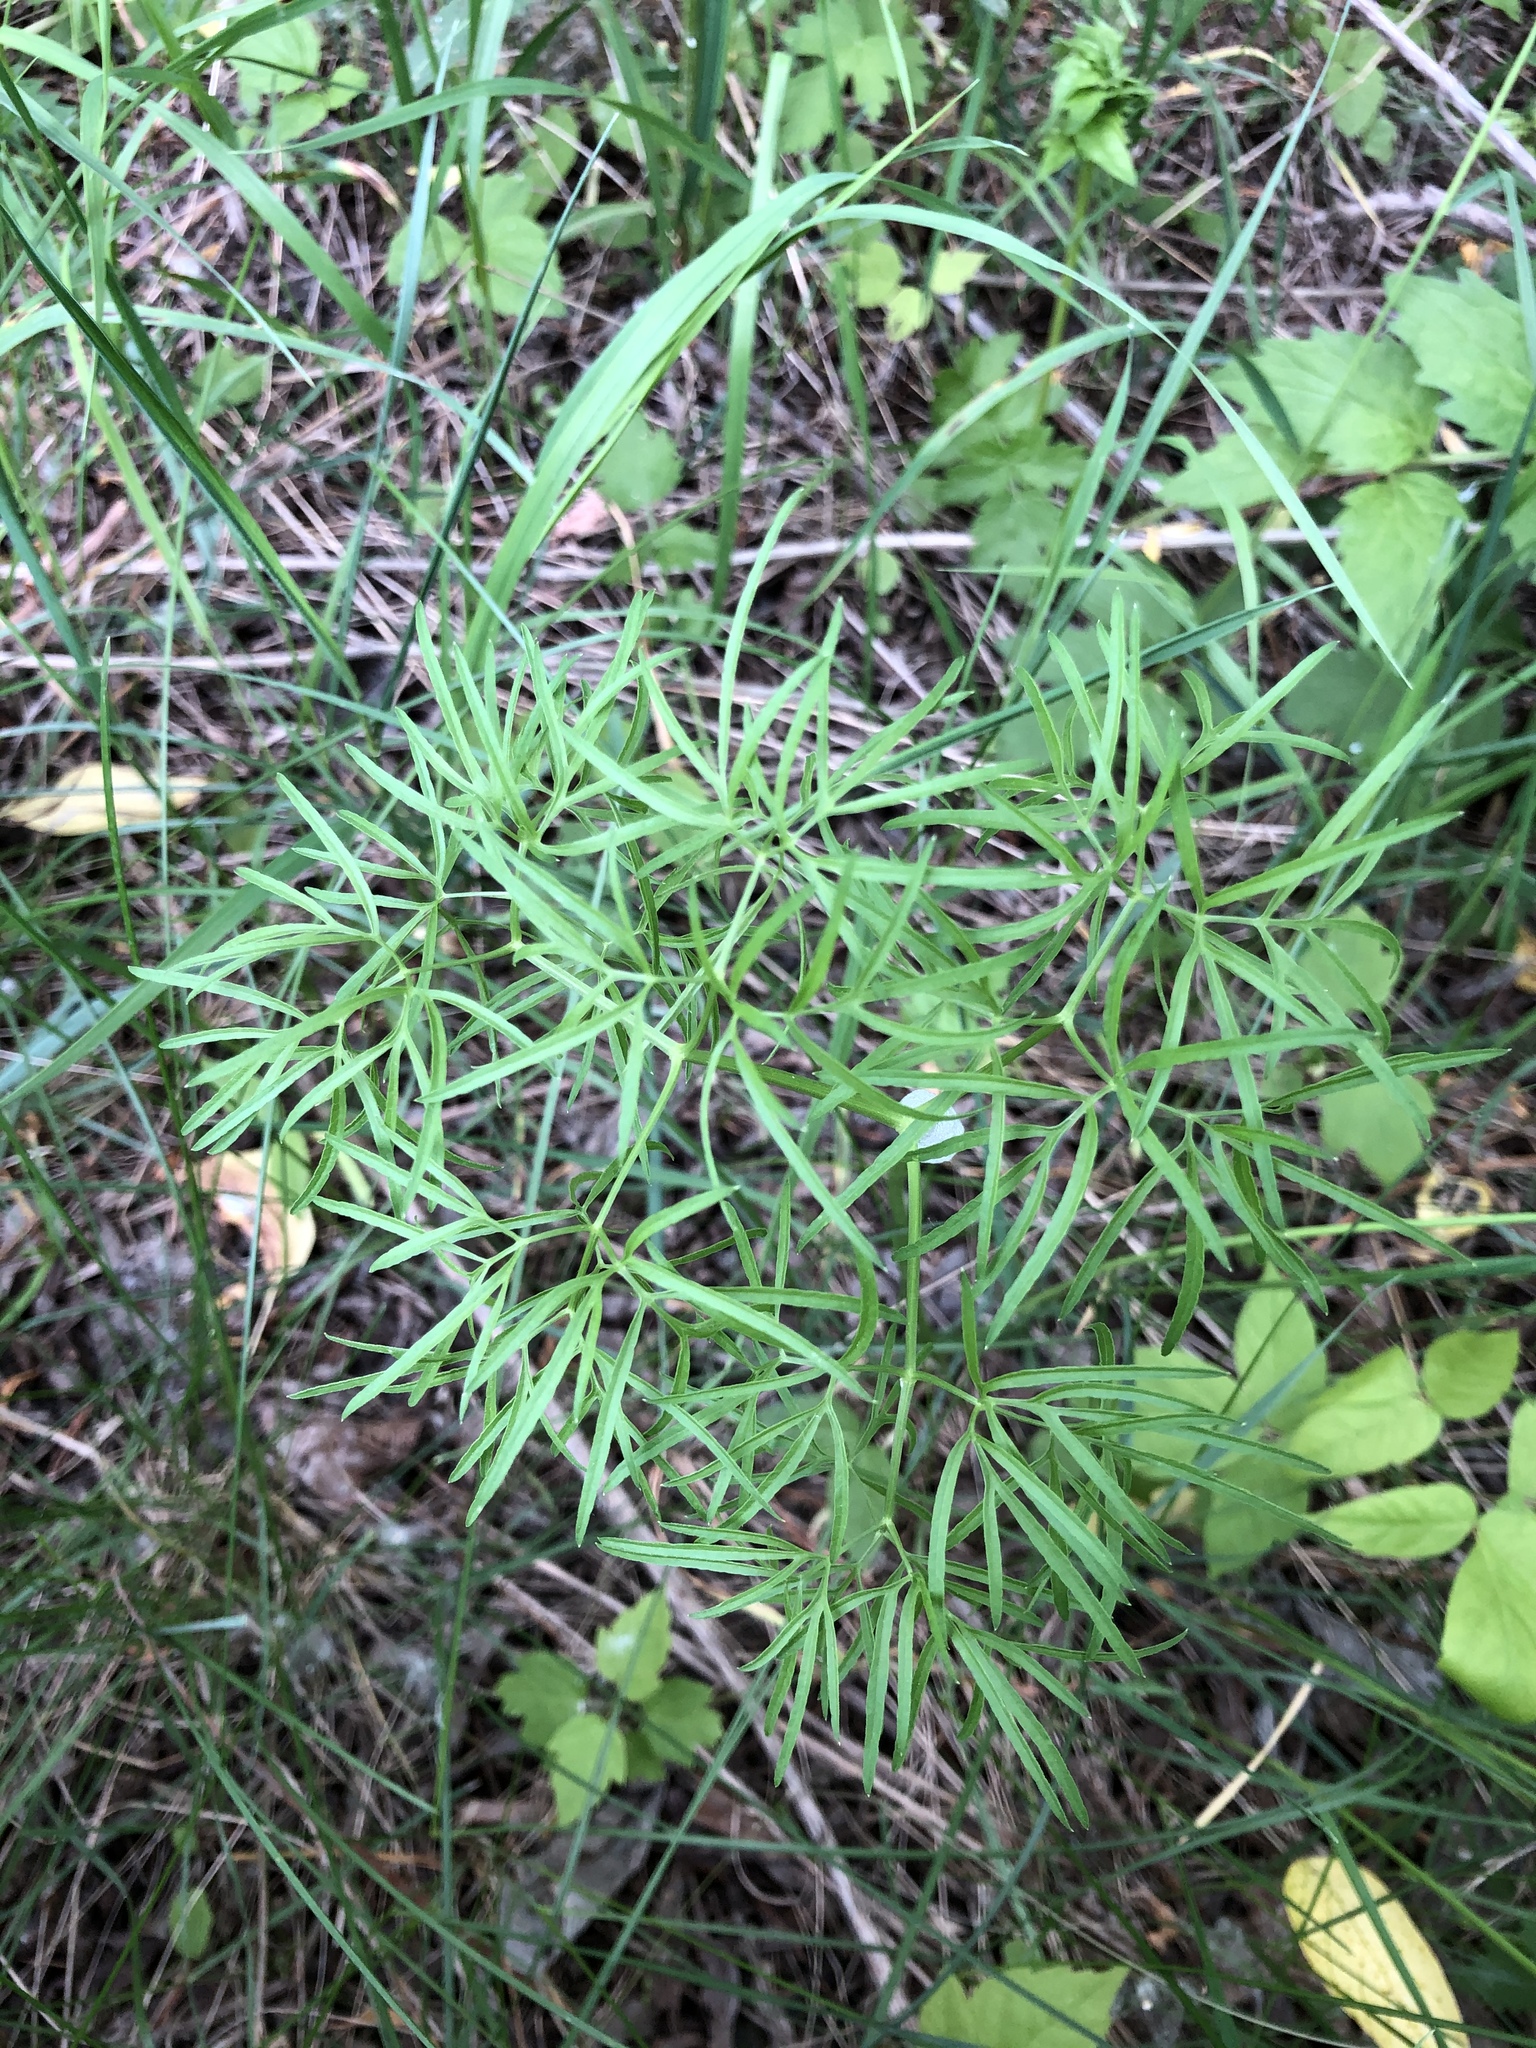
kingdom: Plantae
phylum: Tracheophyta
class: Magnoliopsida
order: Apiales
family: Apiaceae
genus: Cenolophium
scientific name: Cenolophium fischeri
